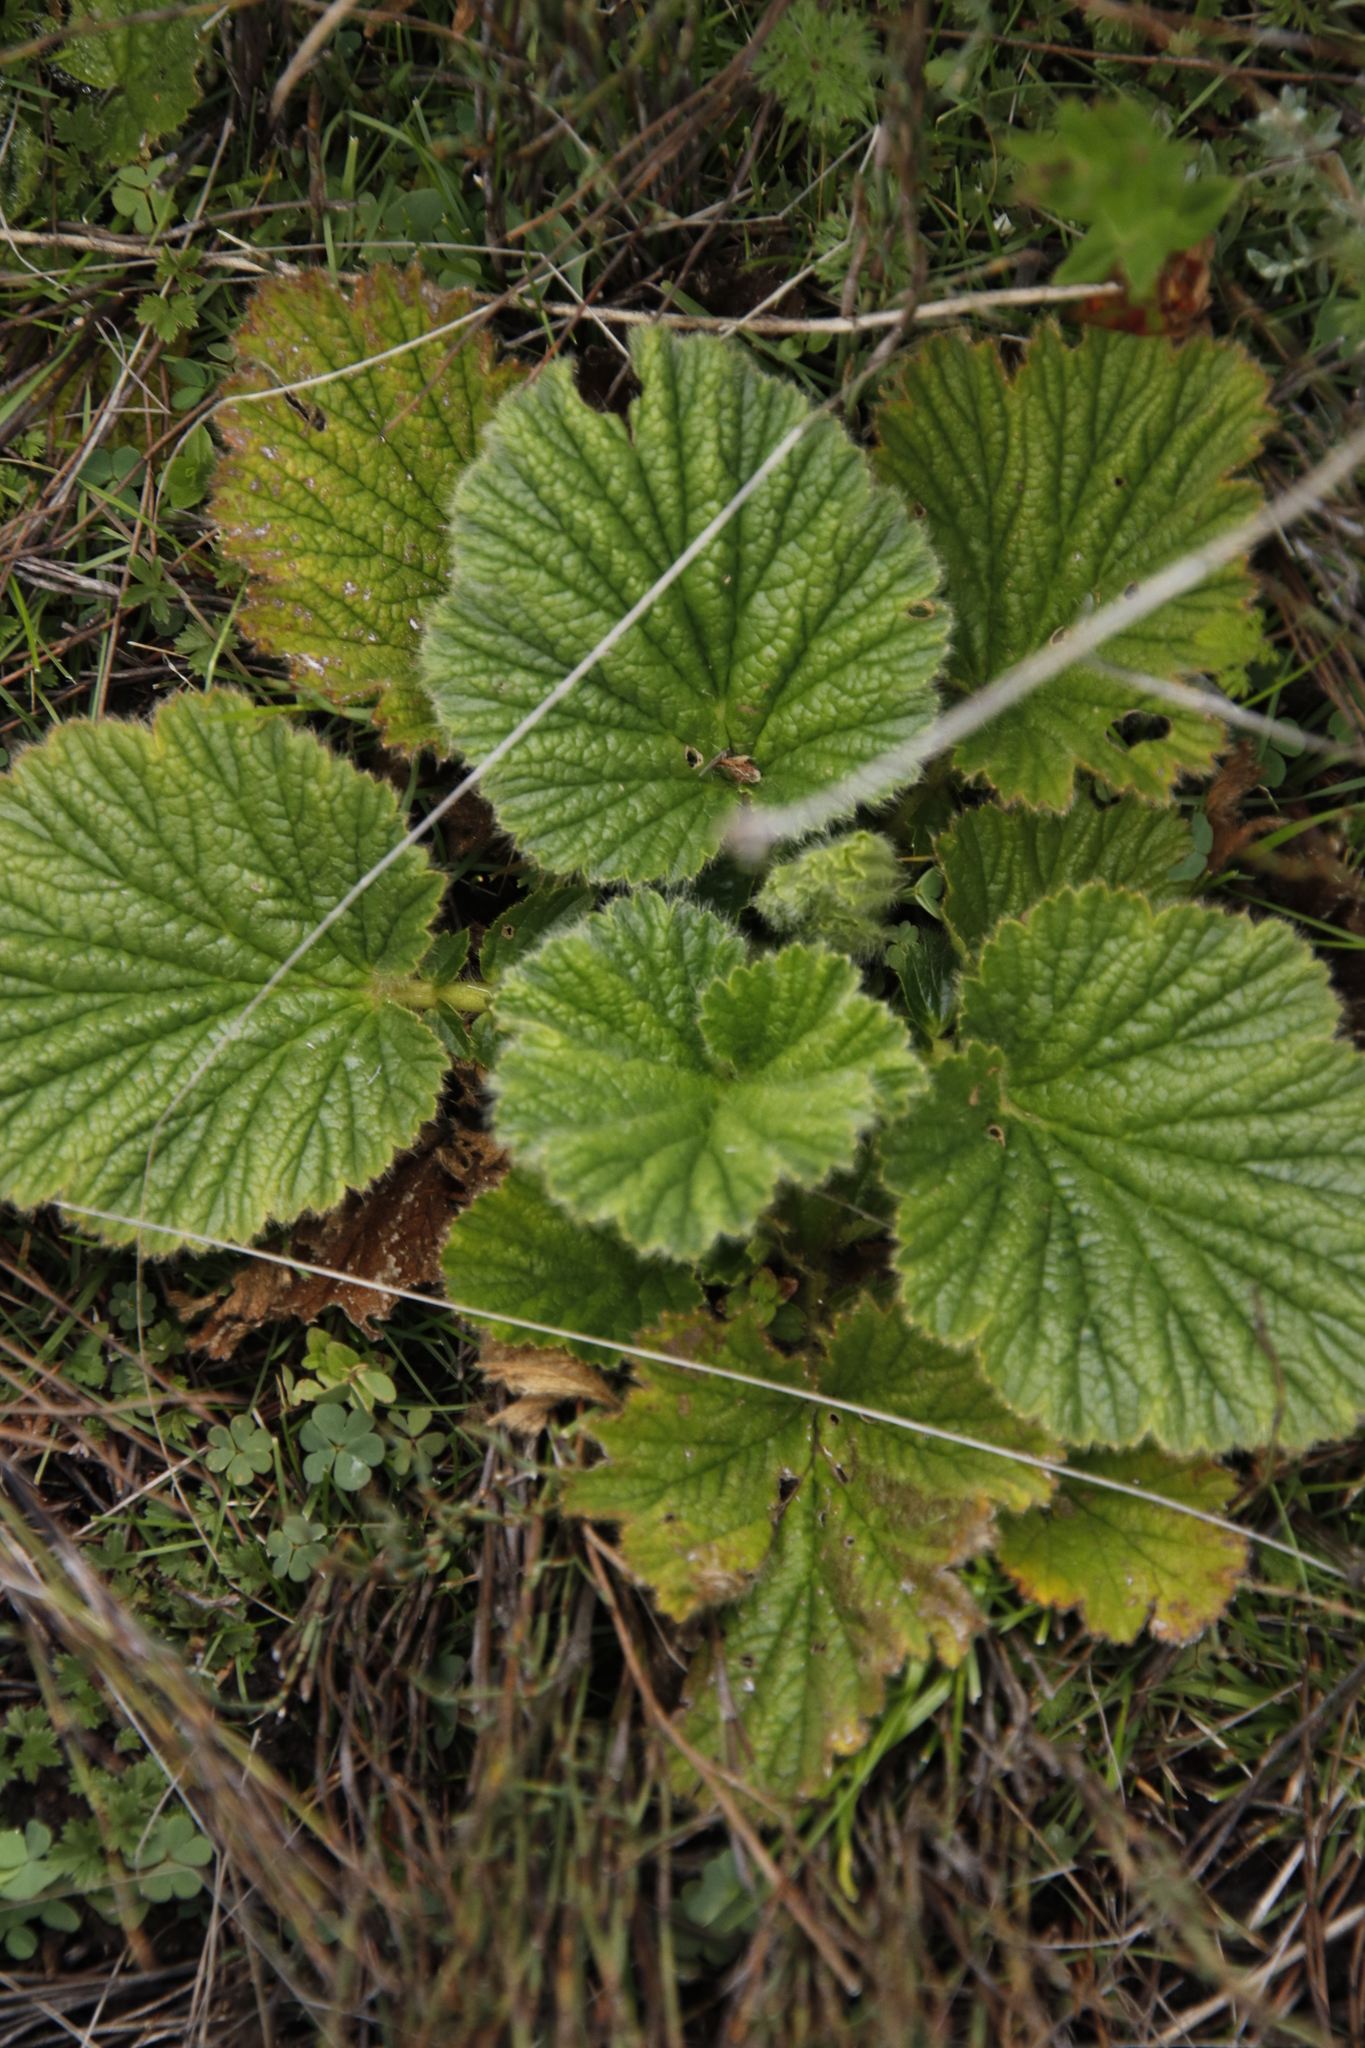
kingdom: Plantae
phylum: Tracheophyta
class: Magnoliopsida
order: Rosales
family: Rosaceae
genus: Geum
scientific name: Geum capense
